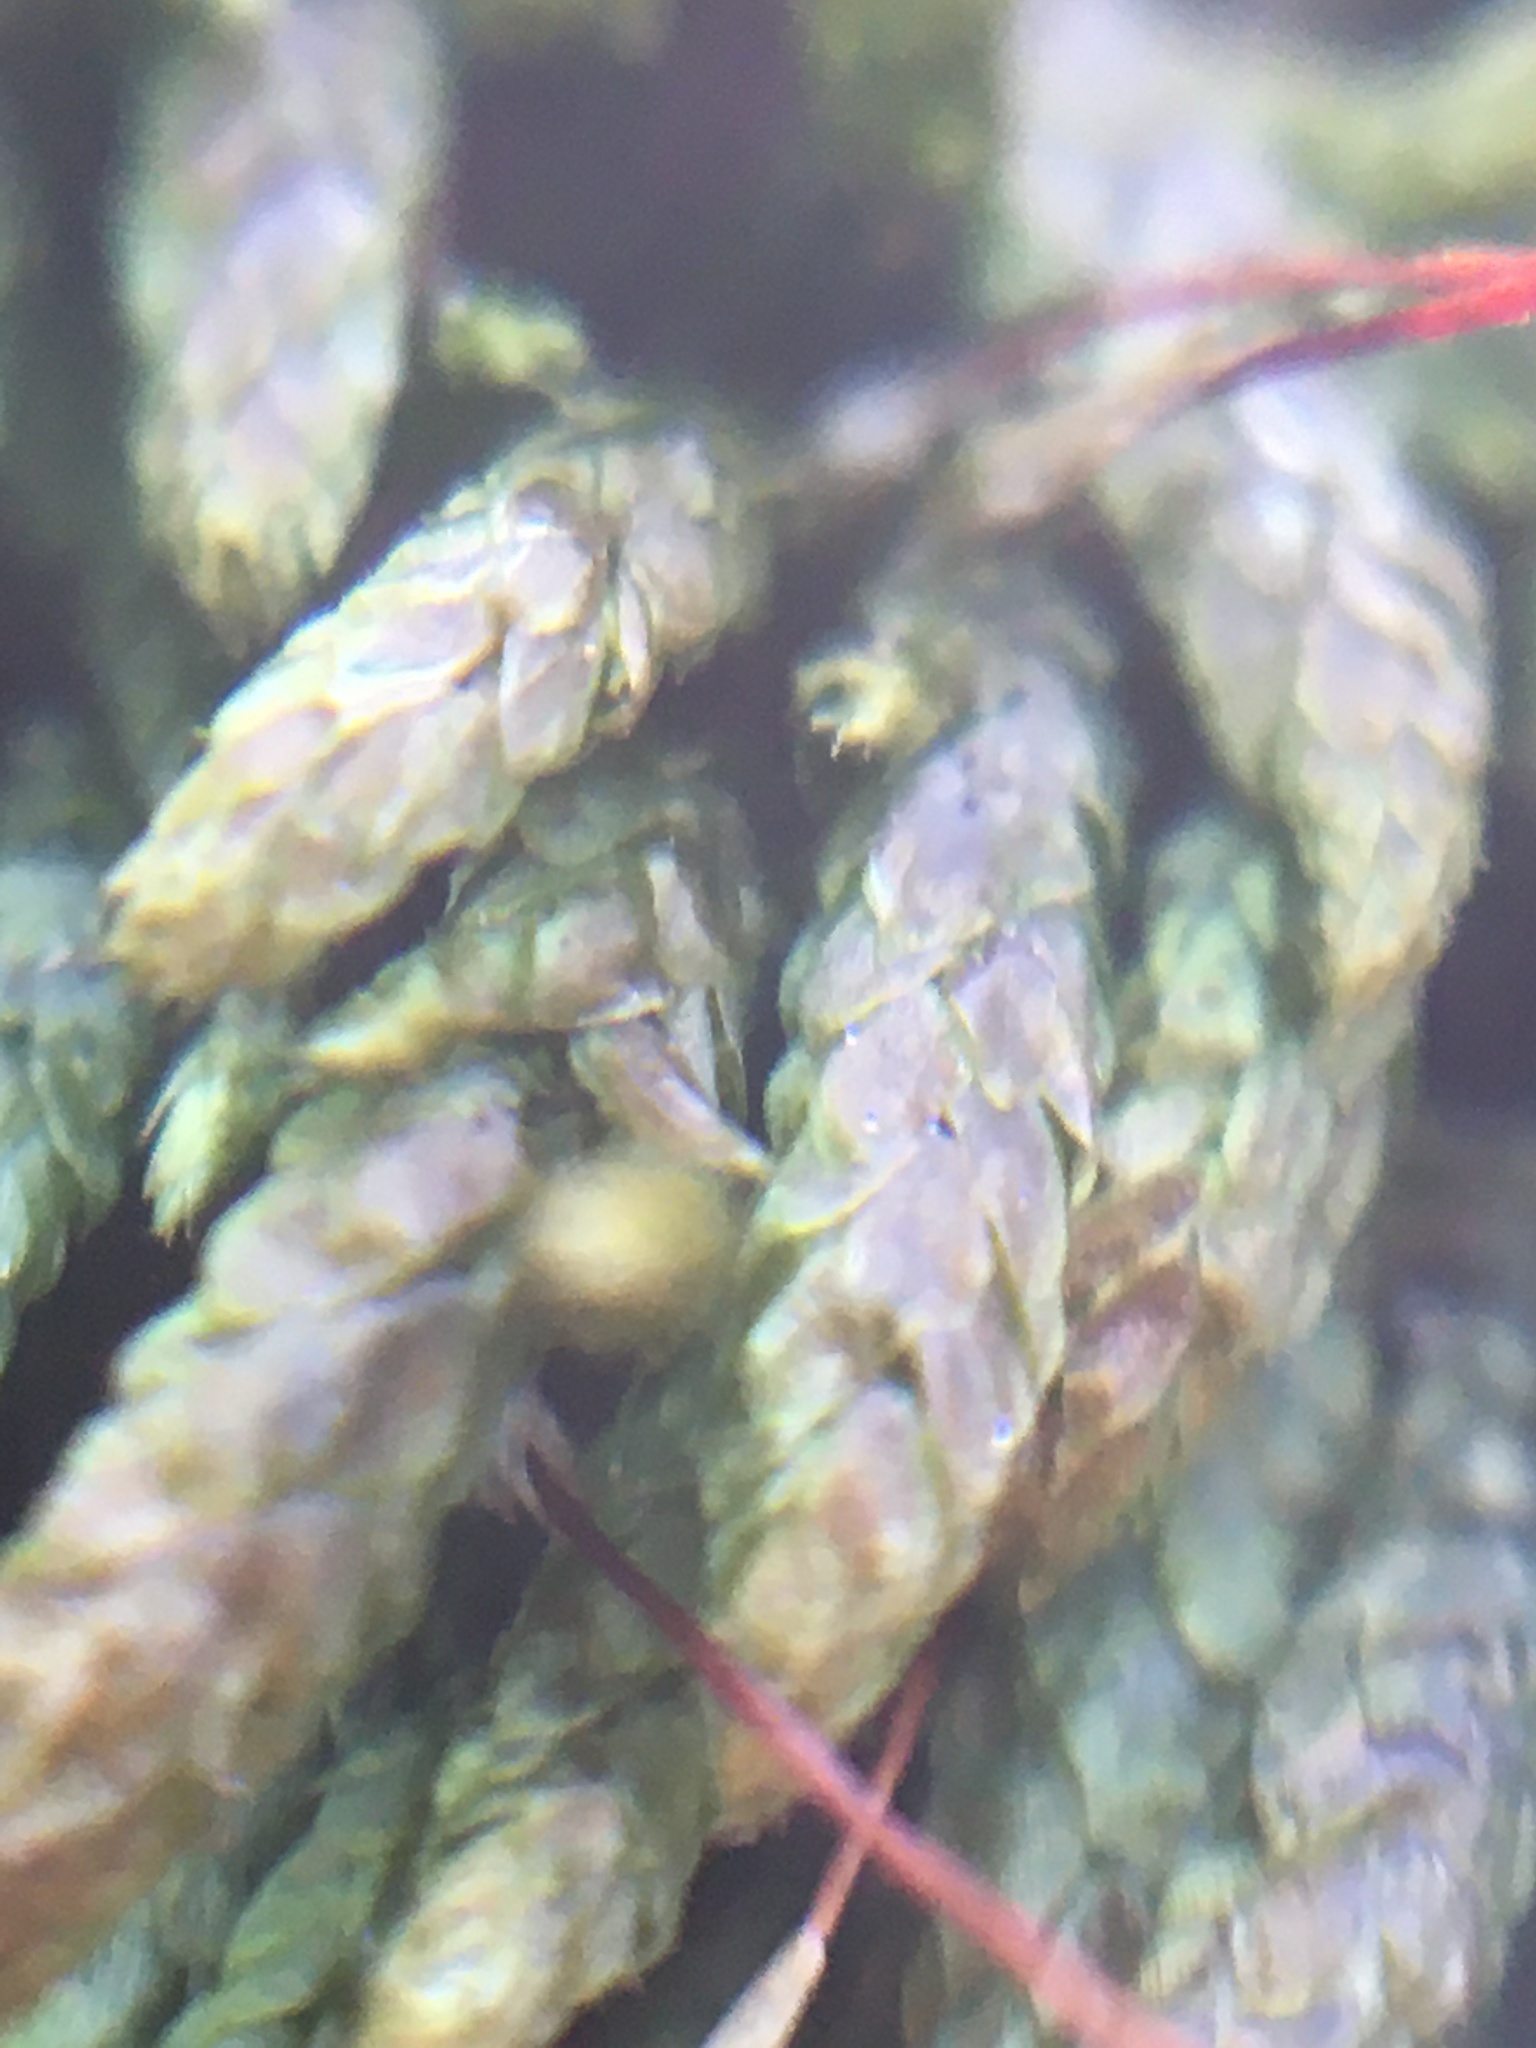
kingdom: Plantae
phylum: Bryophyta
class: Bryopsida
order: Hypnales
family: Entodontaceae
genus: Entodon
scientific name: Entodon seductrix
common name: Round-stemmed entodon moss
